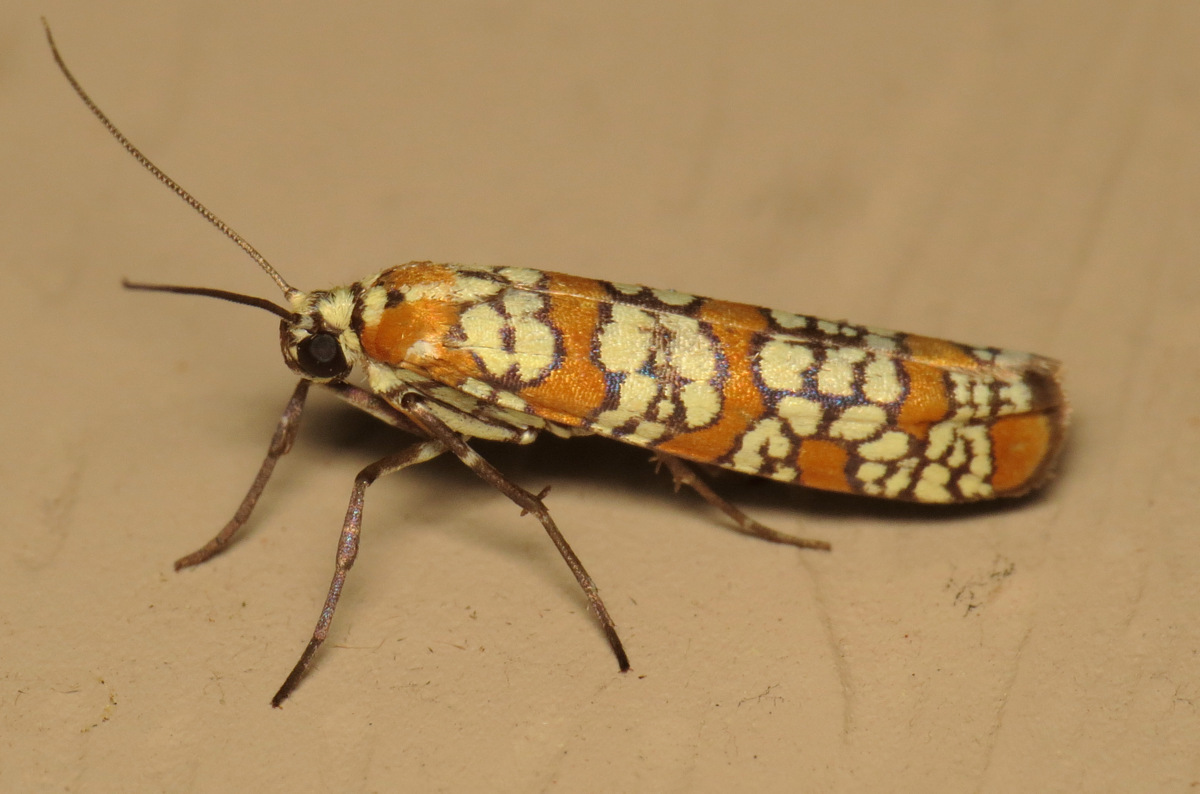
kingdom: Animalia
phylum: Arthropoda
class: Insecta
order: Lepidoptera
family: Attevidae
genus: Atteva
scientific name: Atteva punctella
